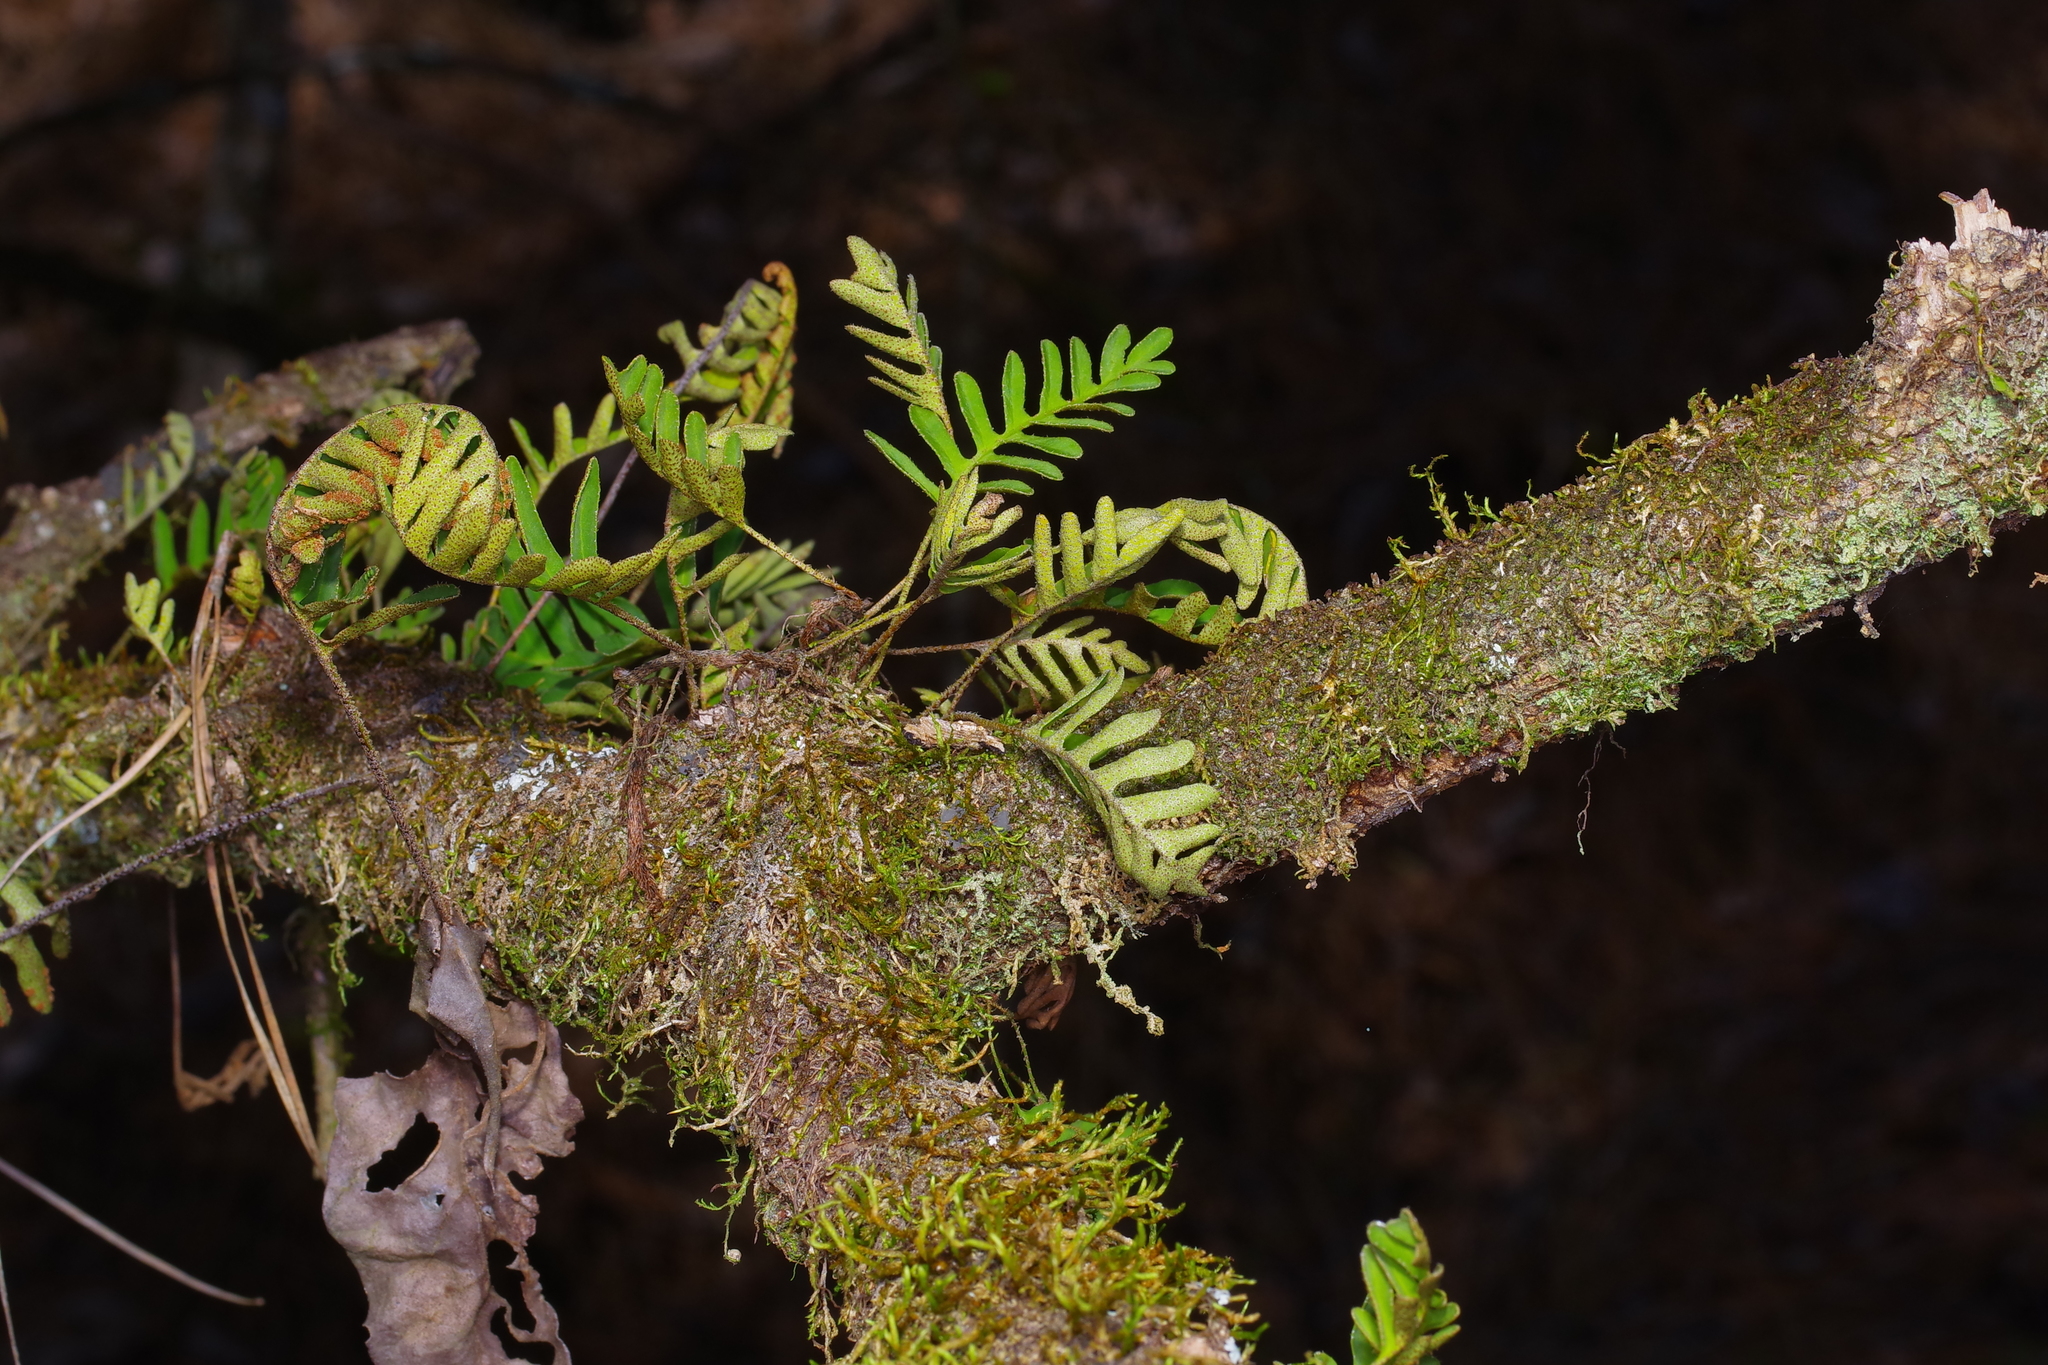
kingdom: Plantae
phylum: Tracheophyta
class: Polypodiopsida
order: Polypodiales
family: Polypodiaceae
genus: Pleopeltis
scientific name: Pleopeltis michauxiana
